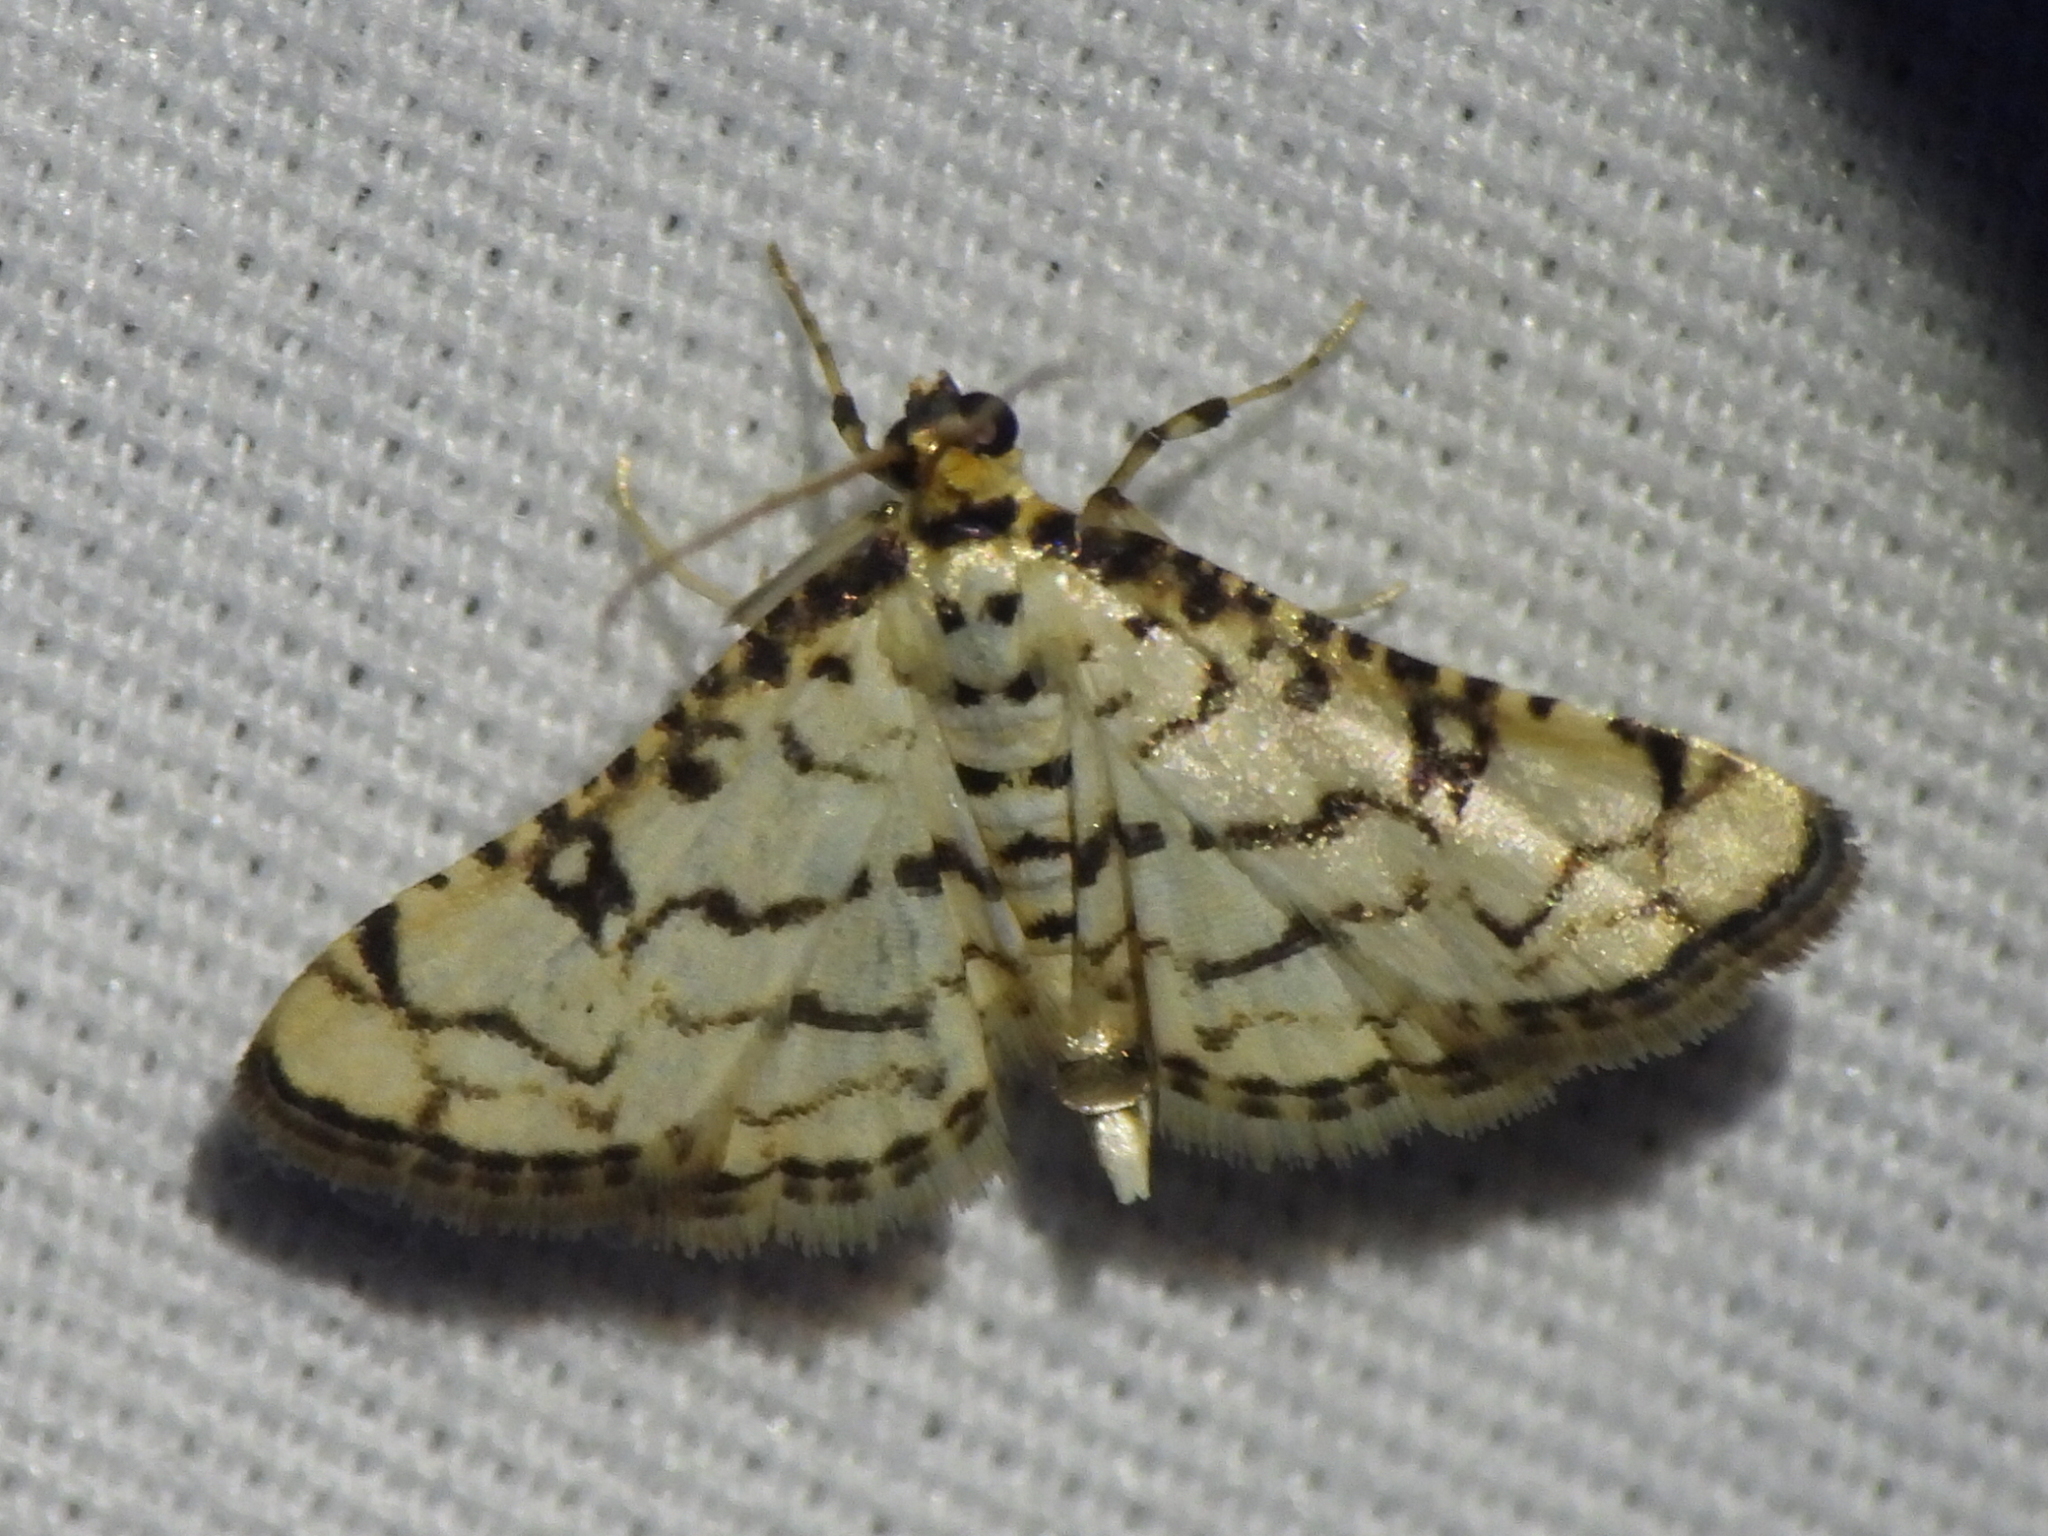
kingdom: Animalia
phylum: Arthropoda
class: Insecta
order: Lepidoptera
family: Crambidae
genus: Hileithia
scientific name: Hileithia rehamalis
